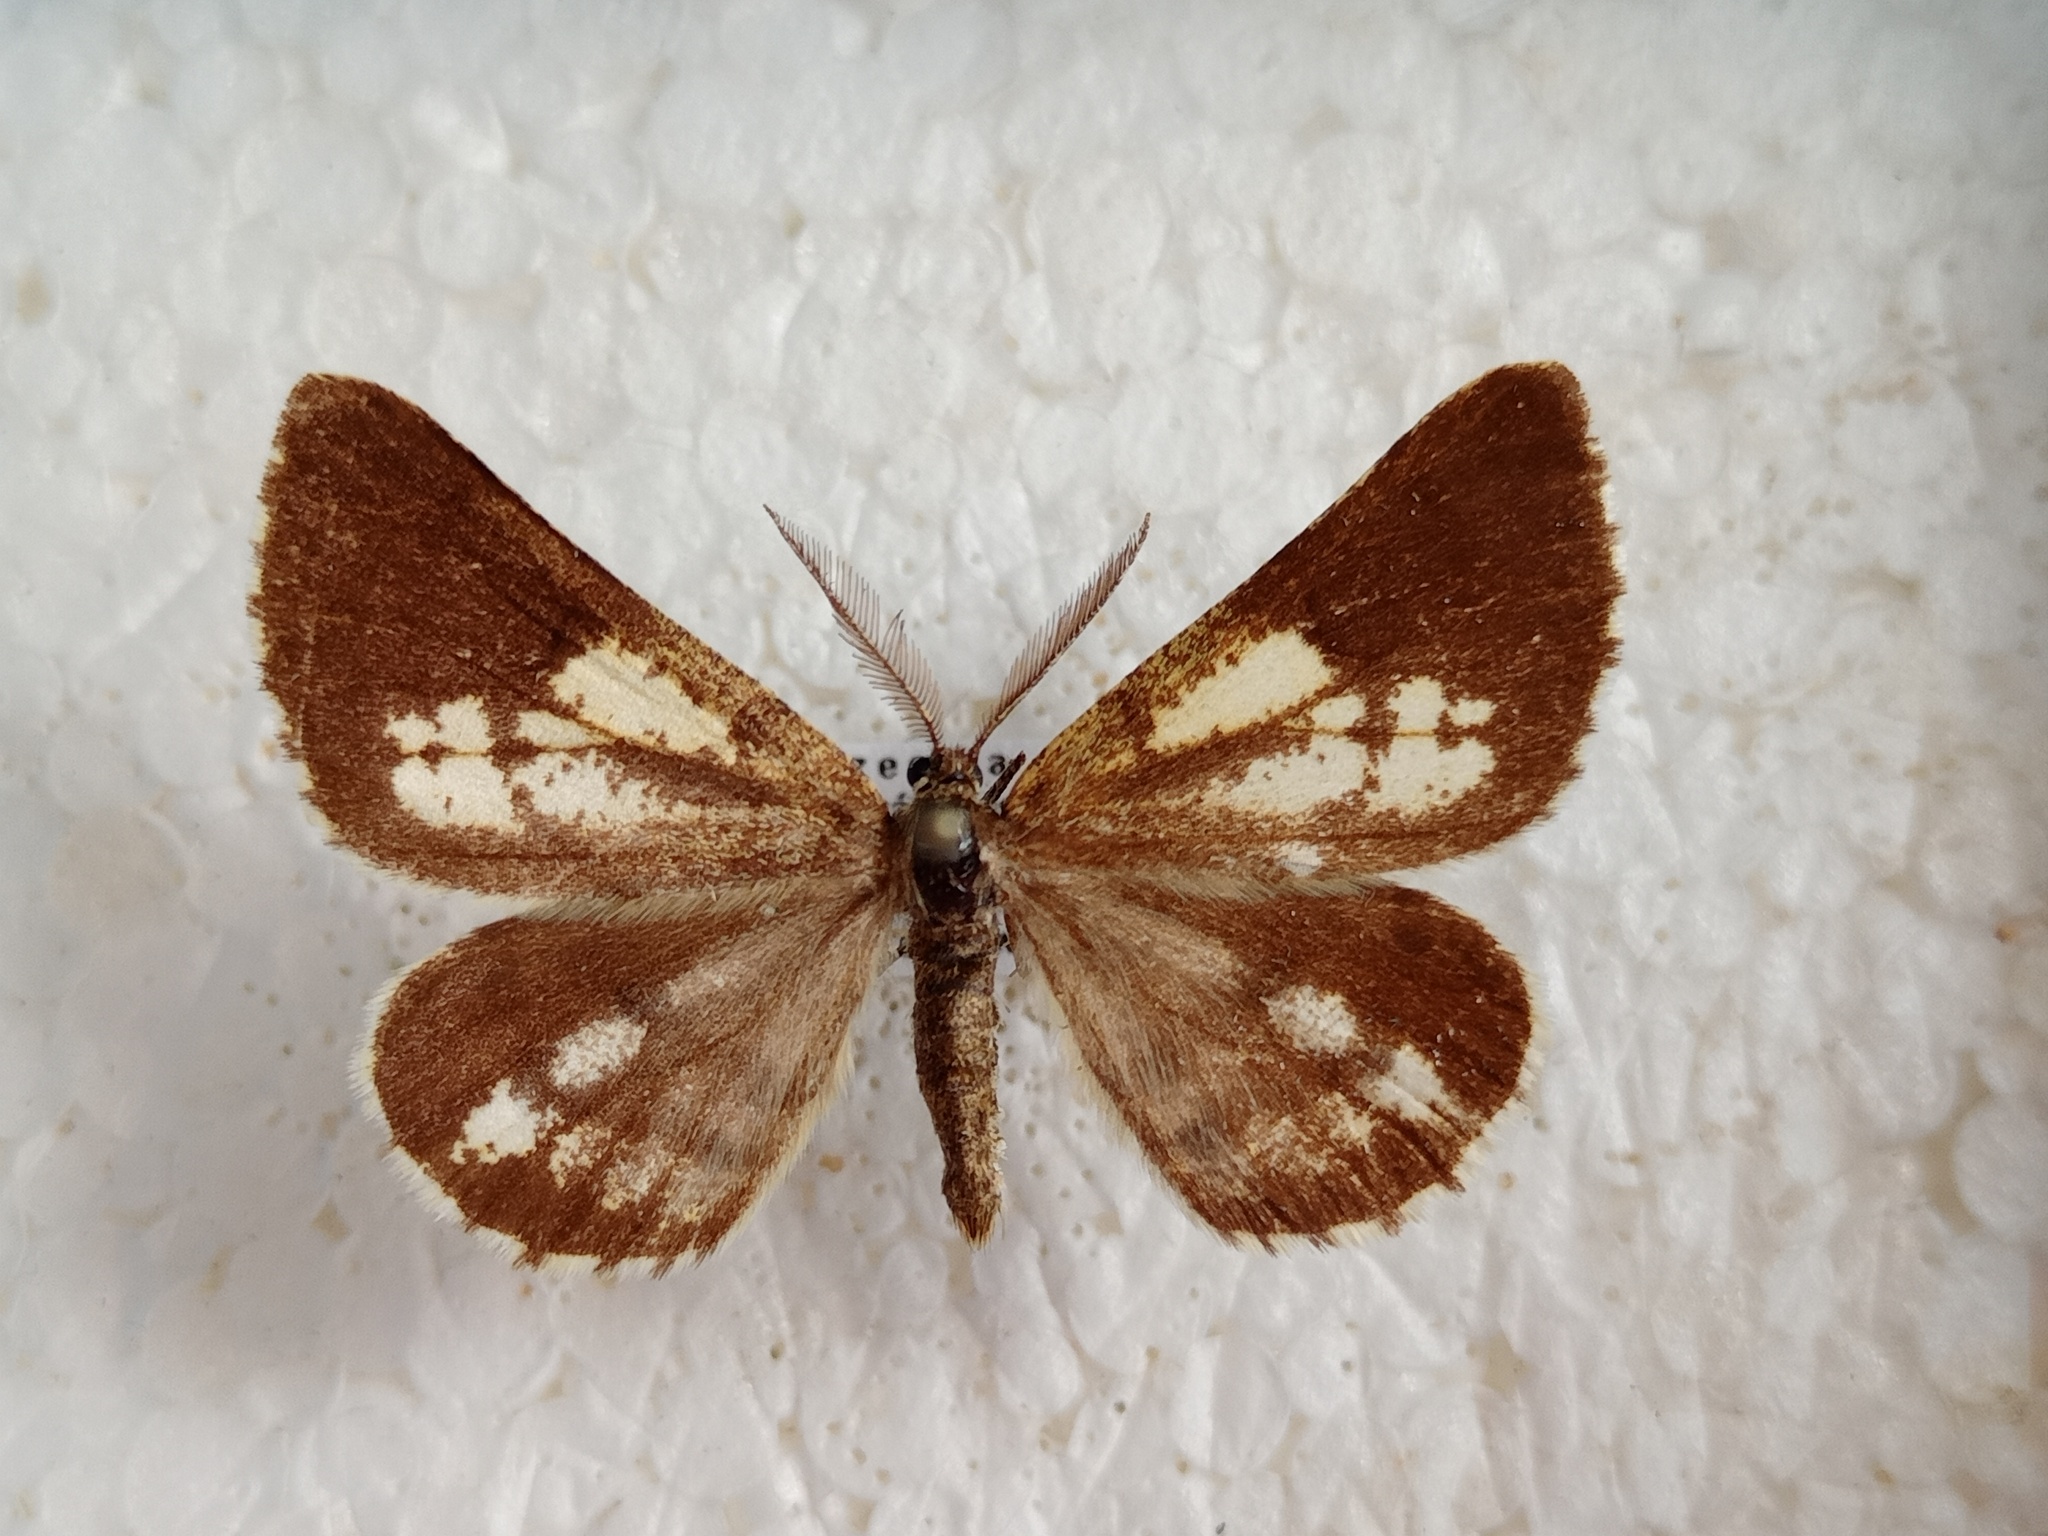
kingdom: Animalia
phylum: Arthropoda
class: Insecta
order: Lepidoptera
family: Geometridae
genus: Bupalus
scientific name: Bupalus piniaria
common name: Bordered white
